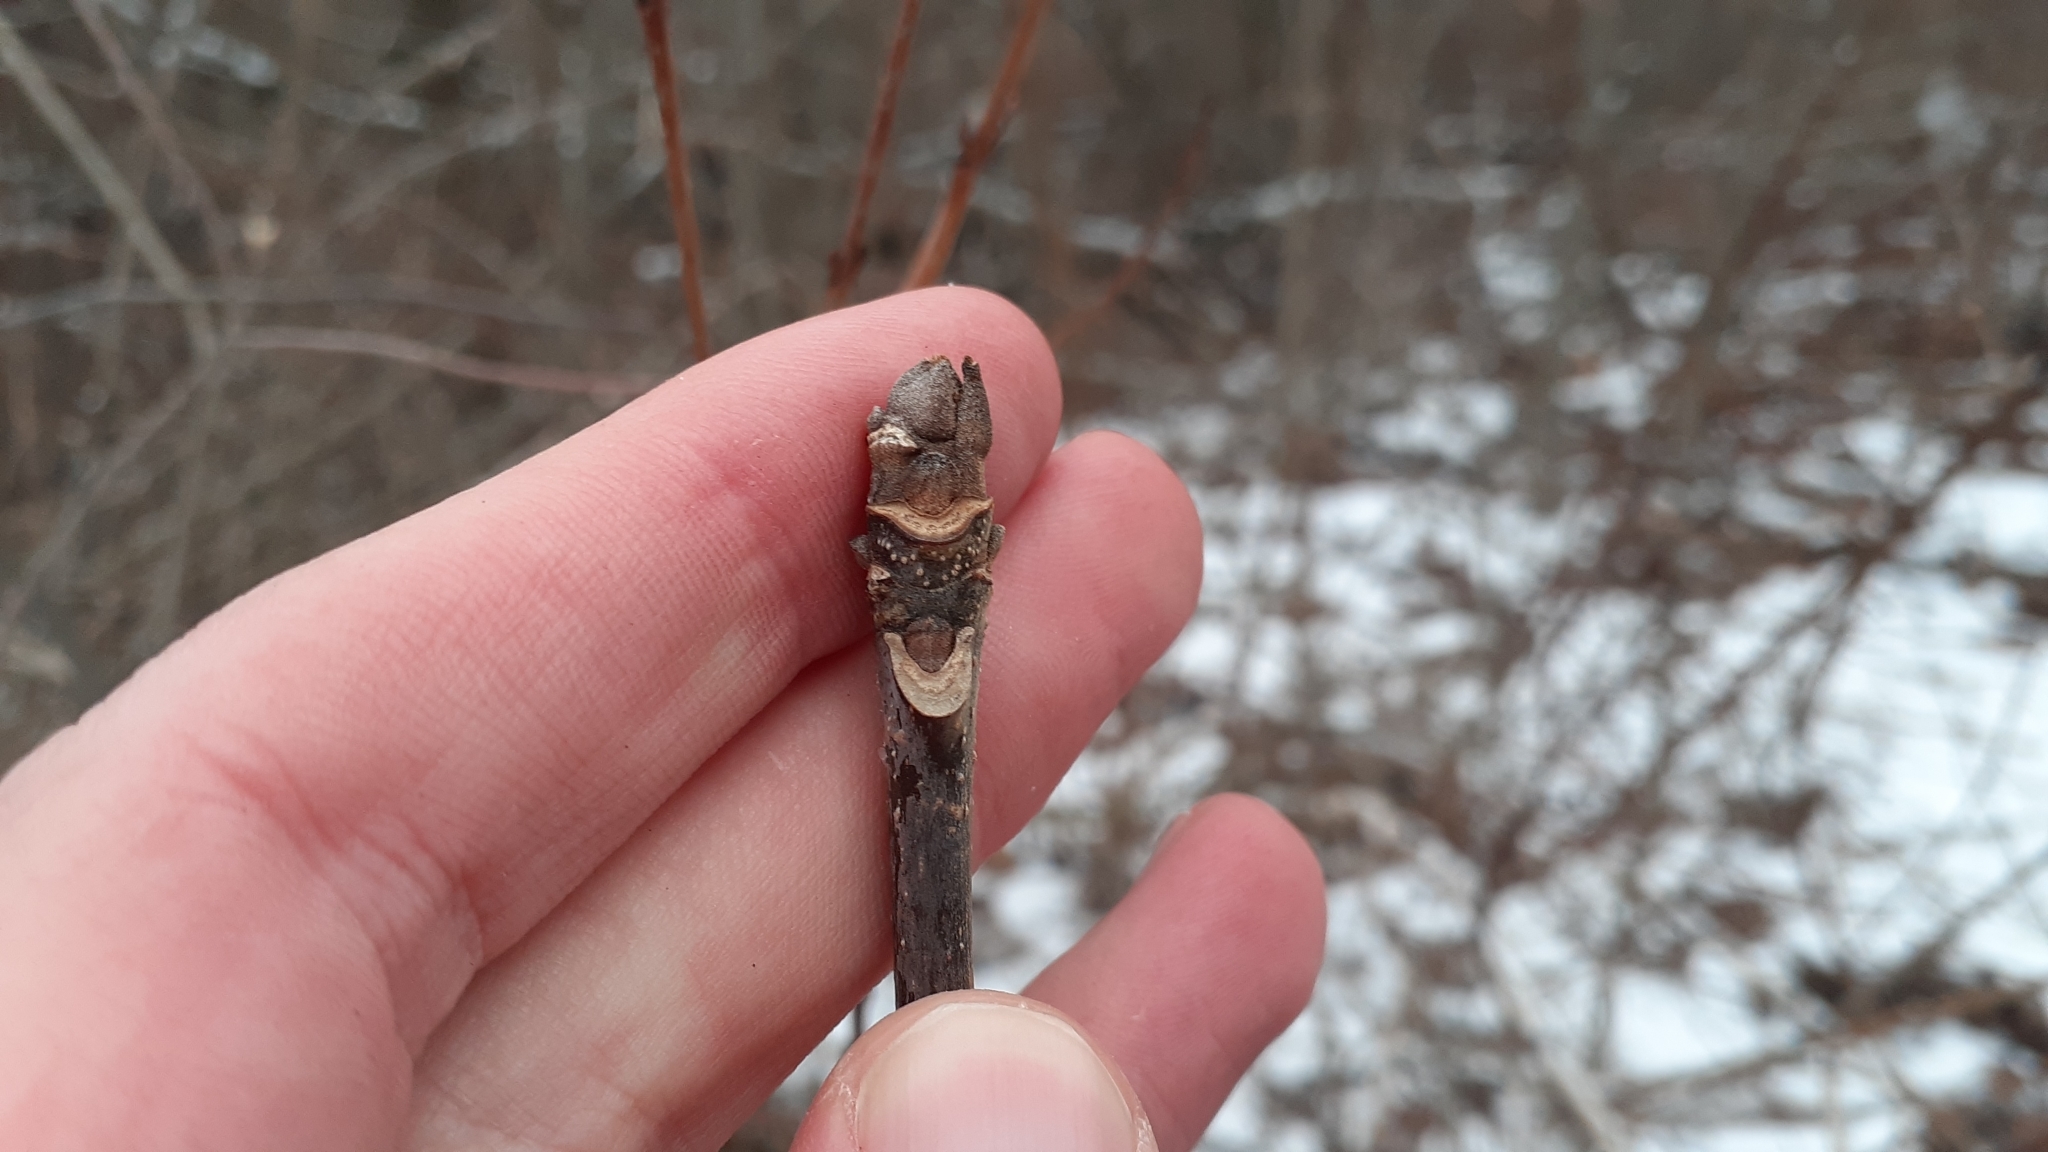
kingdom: Plantae
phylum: Tracheophyta
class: Magnoliopsida
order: Lamiales
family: Oleaceae
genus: Fraxinus
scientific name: Fraxinus americana
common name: White ash
